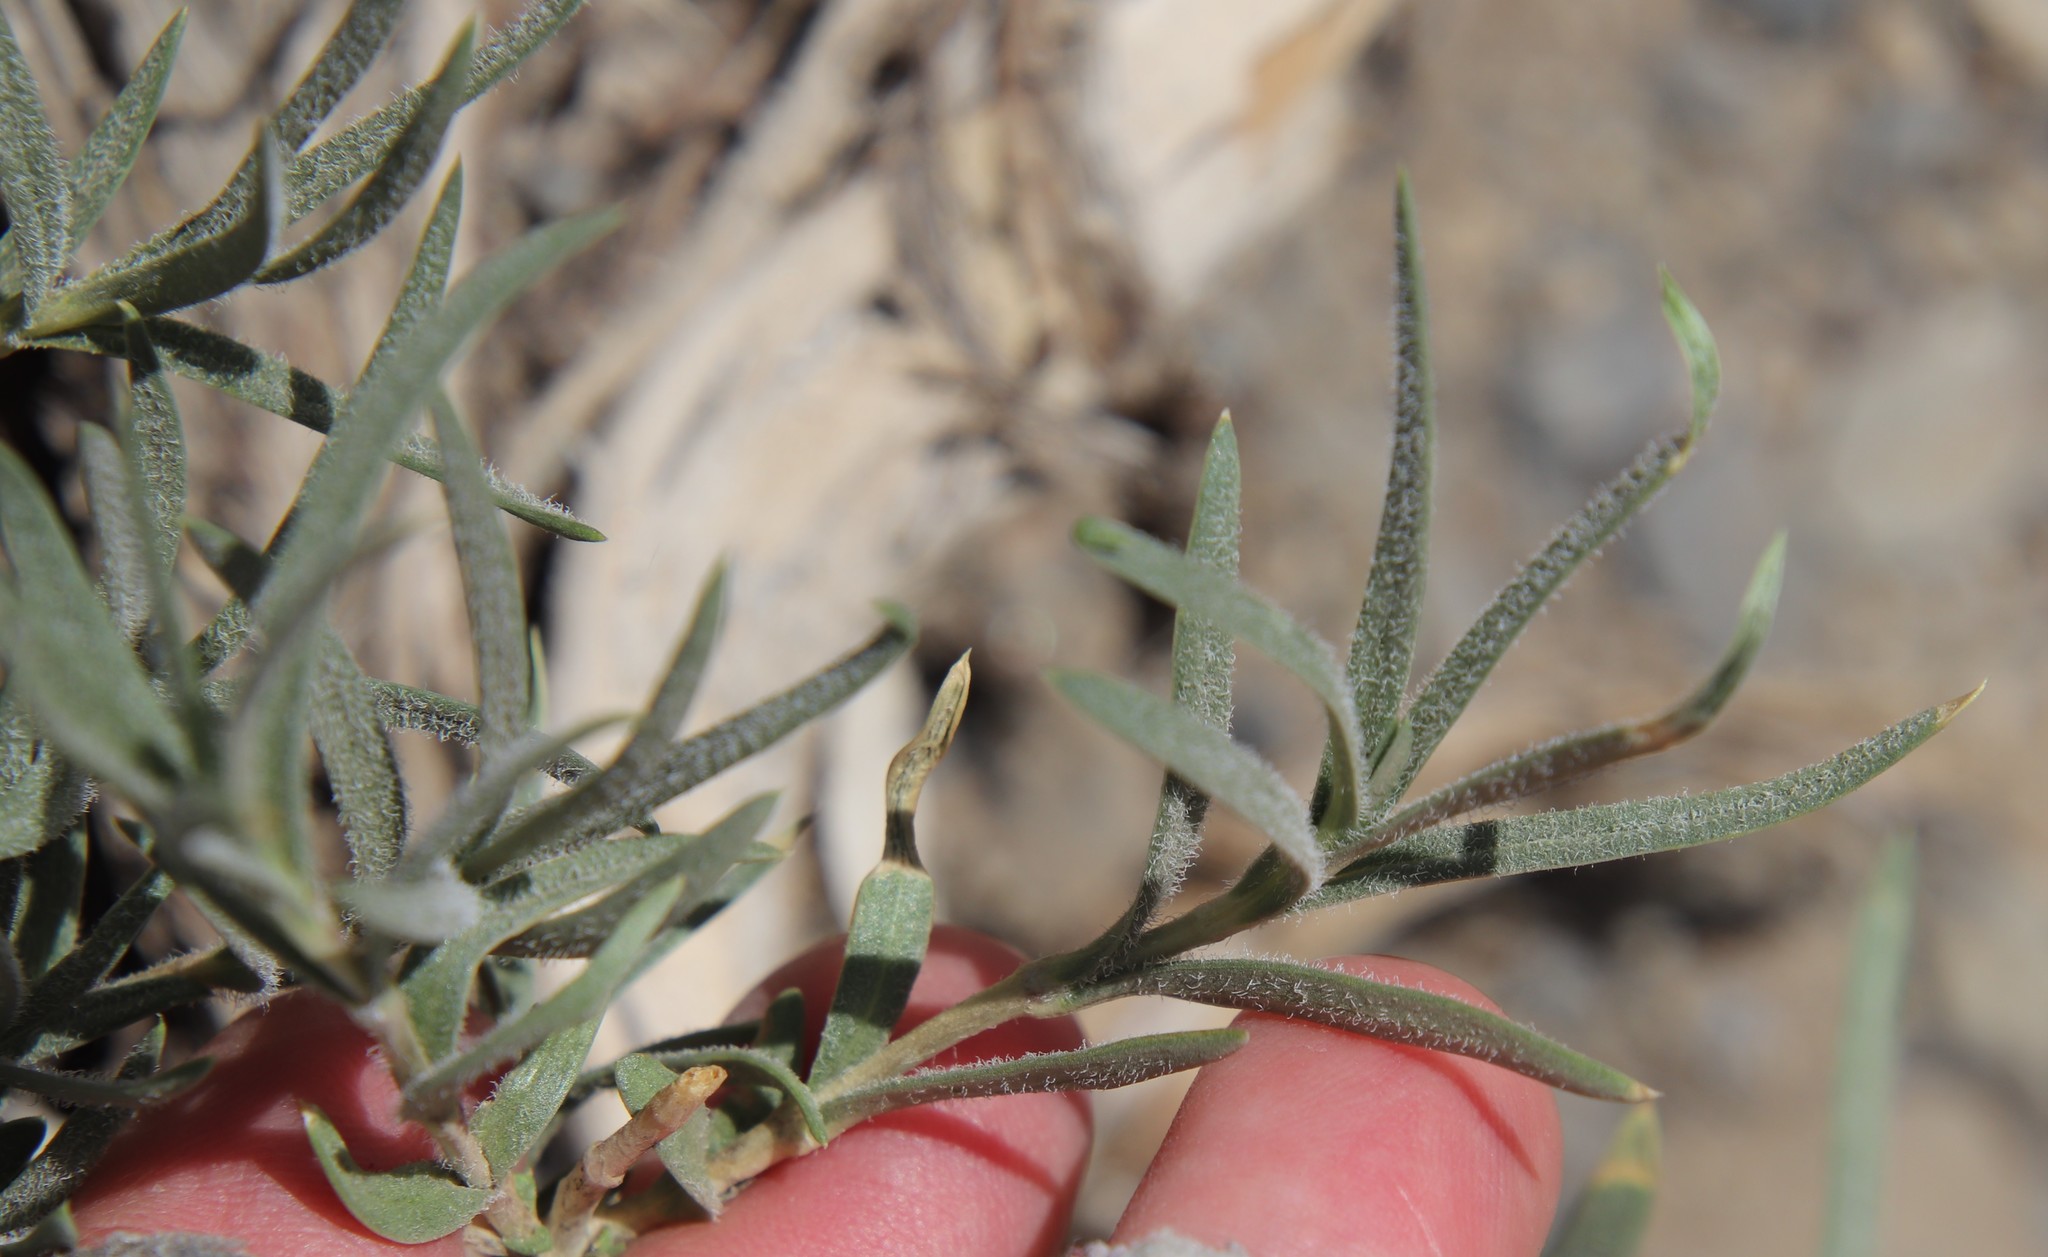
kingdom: Plantae
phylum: Tracheophyta
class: Magnoliopsida
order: Ericales
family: Polemoniaceae
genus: Phlox
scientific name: Phlox longifolia
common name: Longleaf phlox
